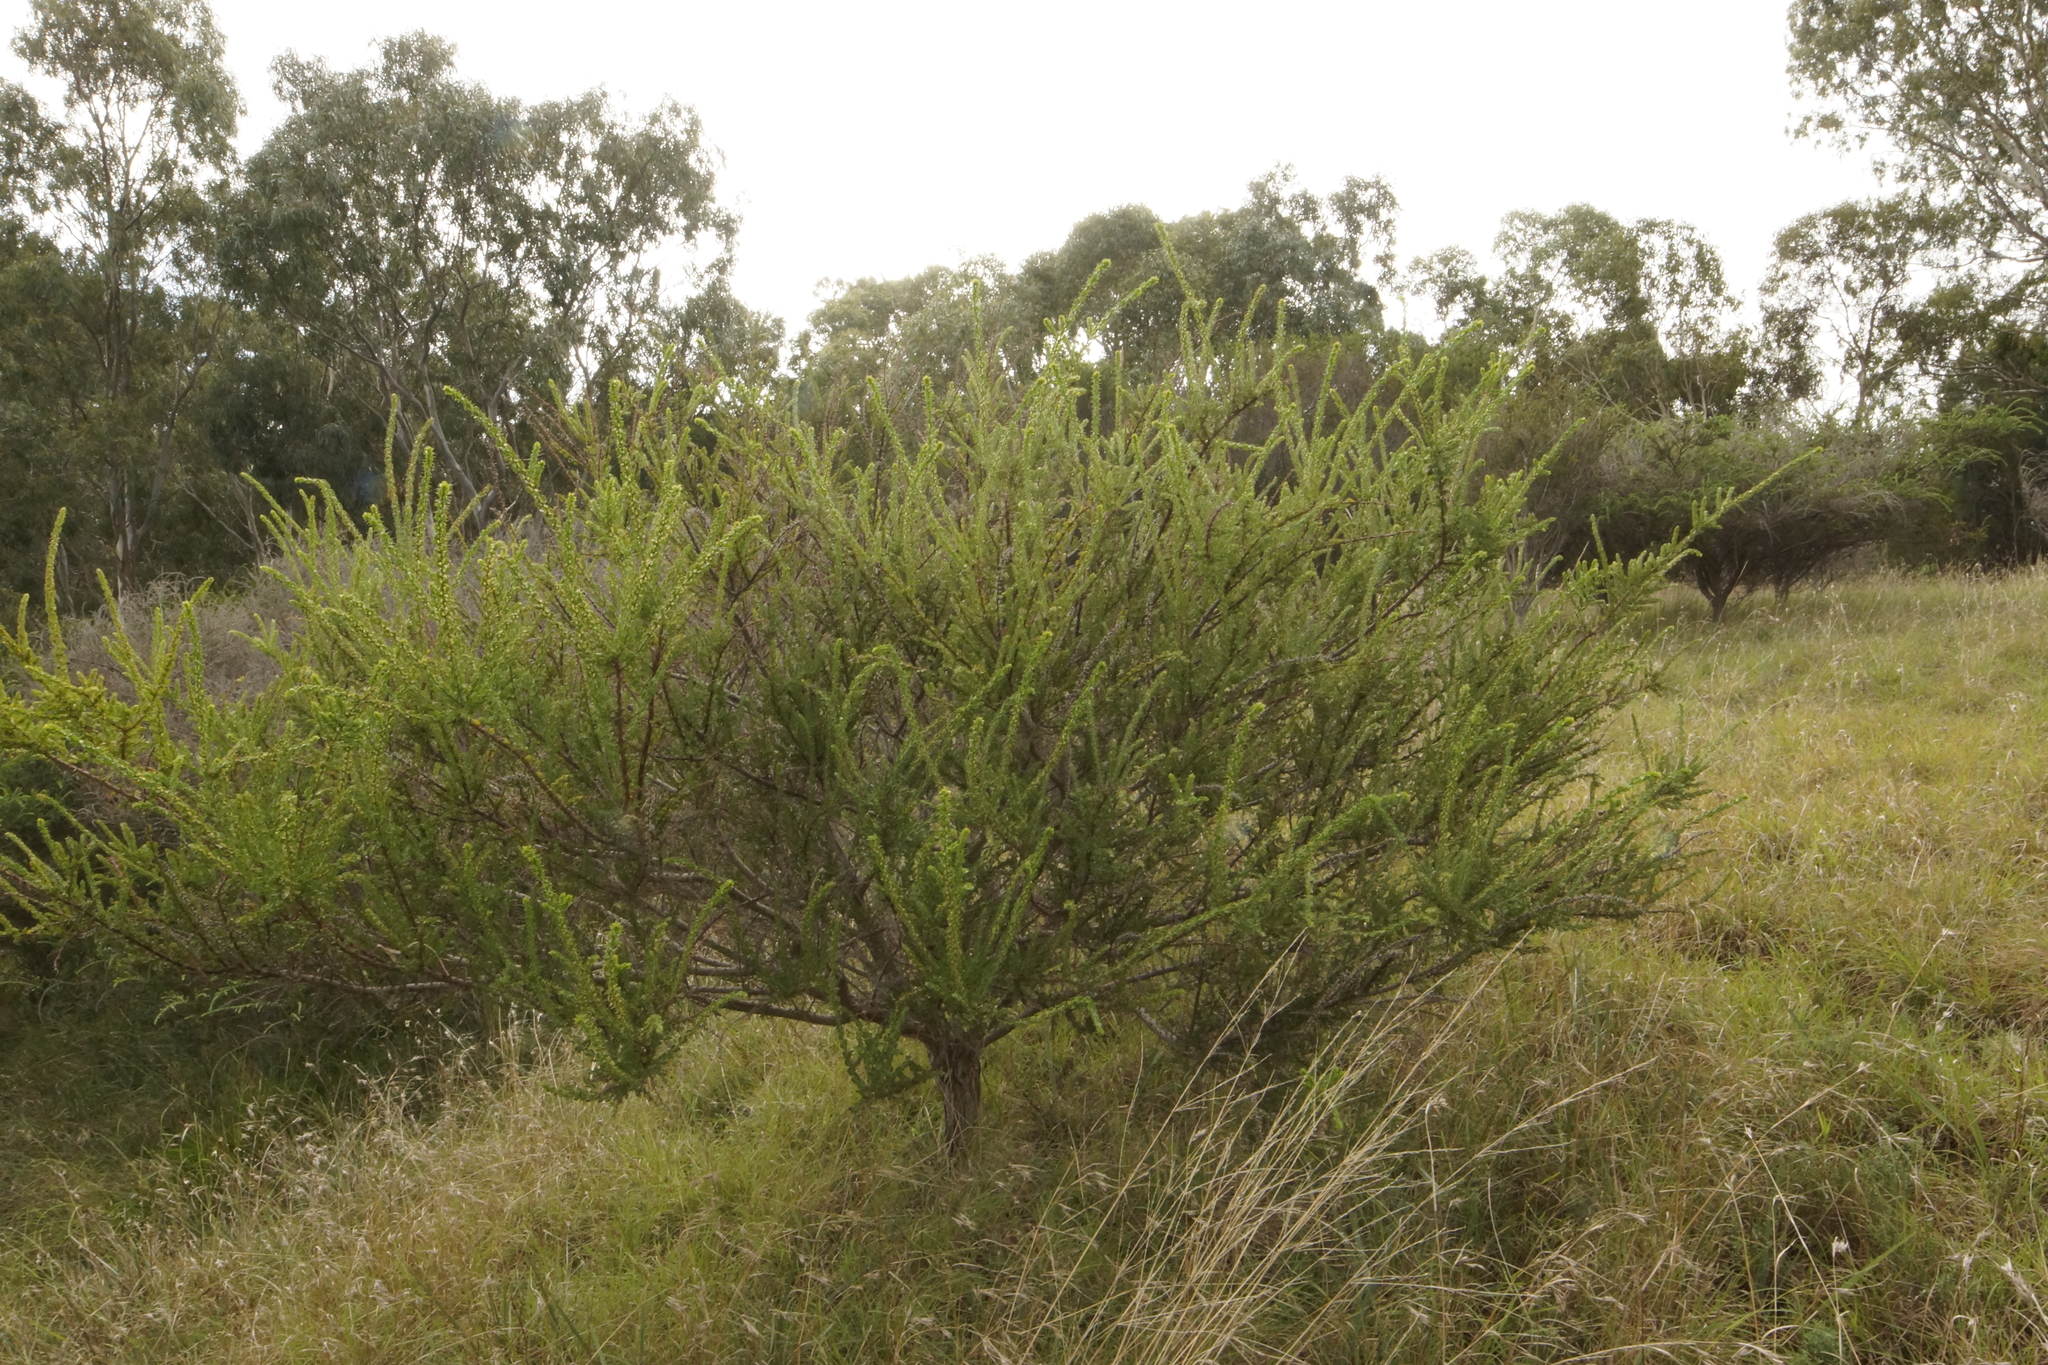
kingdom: Plantae
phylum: Tracheophyta
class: Magnoliopsida
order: Fabales
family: Fabaceae
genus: Acacia
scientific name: Acacia paradoxa
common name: Paradox acacia
